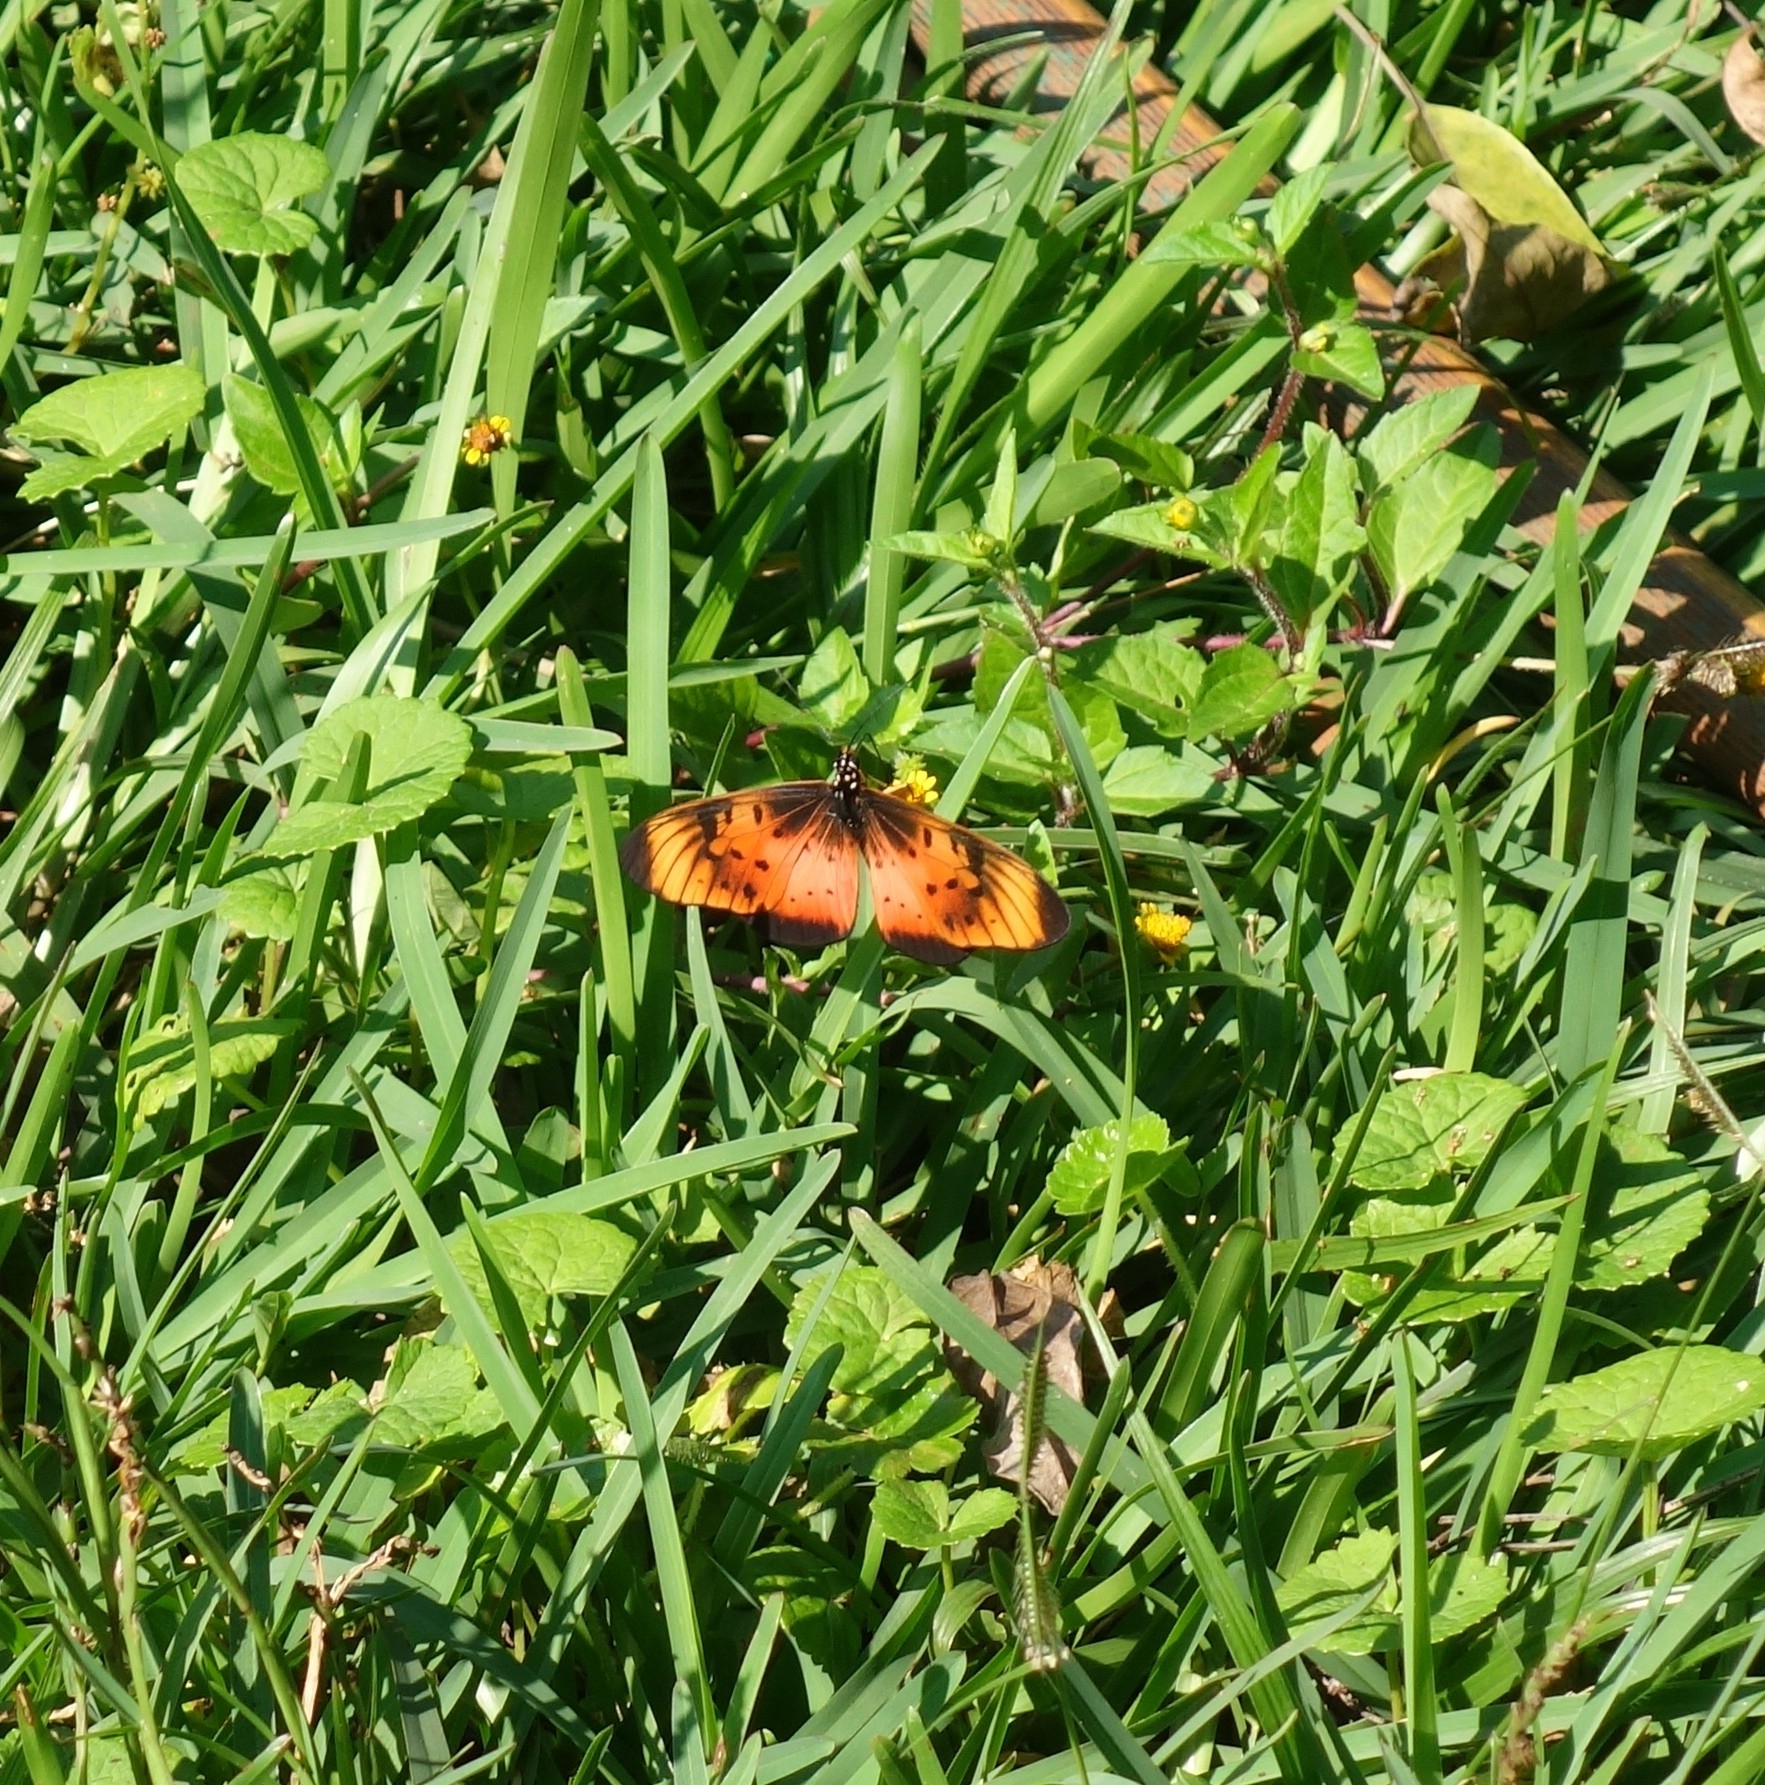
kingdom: Animalia
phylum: Arthropoda
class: Insecta
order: Lepidoptera
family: Nymphalidae
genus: Stephenia
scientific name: Stephenia
